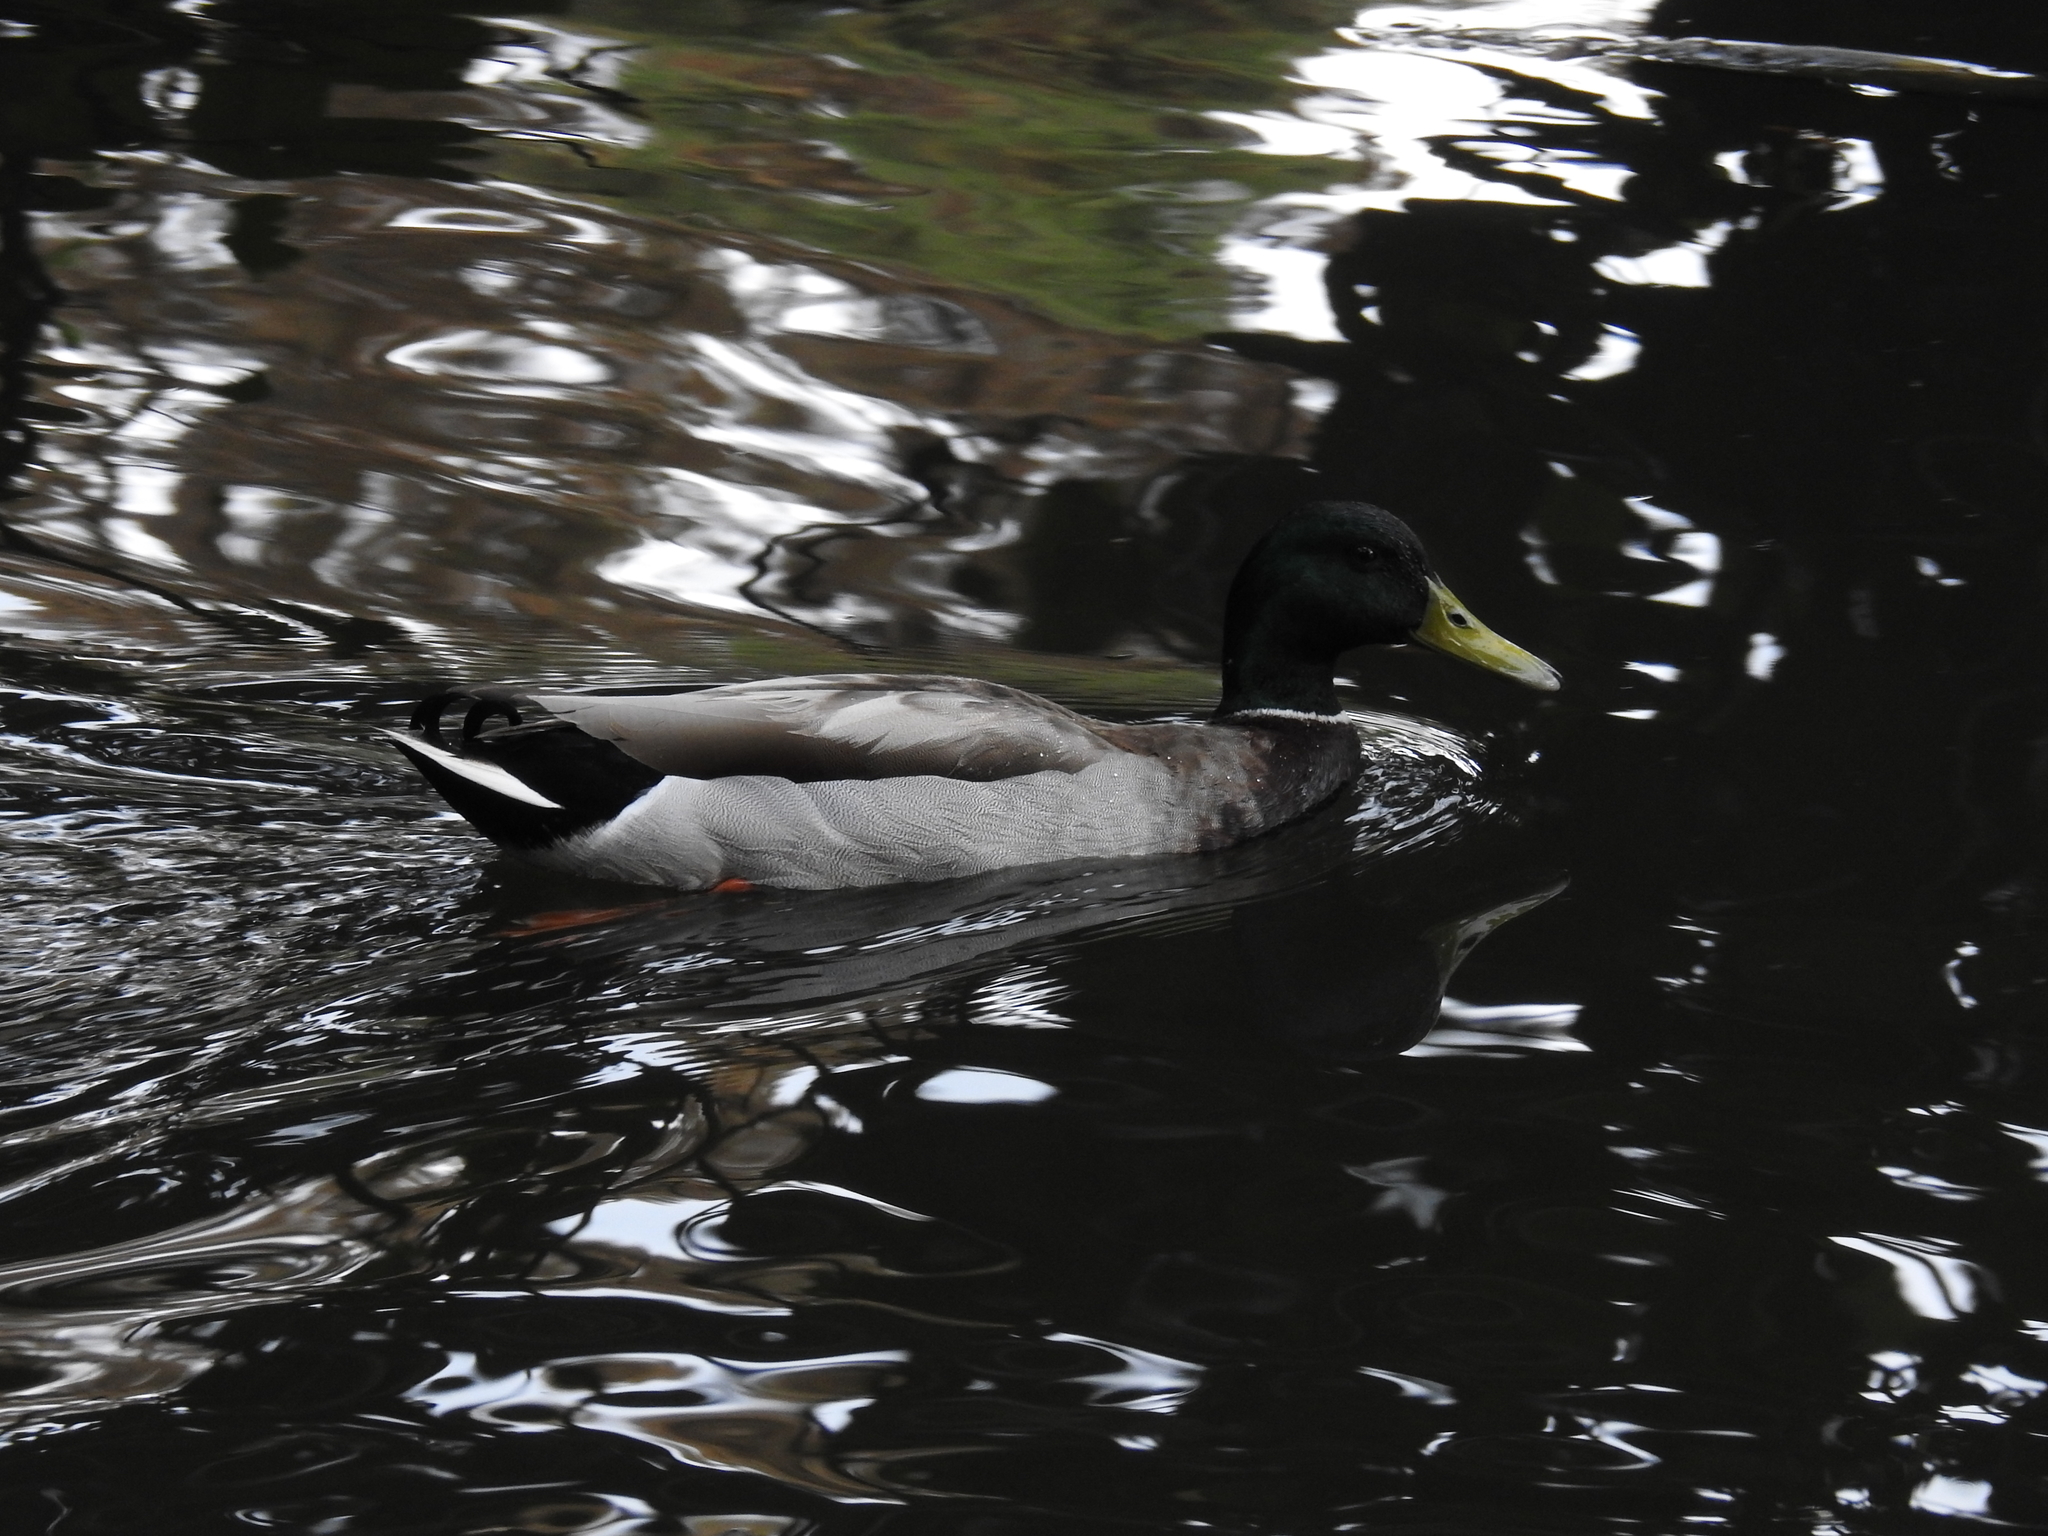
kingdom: Animalia
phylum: Chordata
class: Aves
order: Anseriformes
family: Anatidae
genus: Anas
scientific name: Anas platyrhynchos
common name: Mallard
